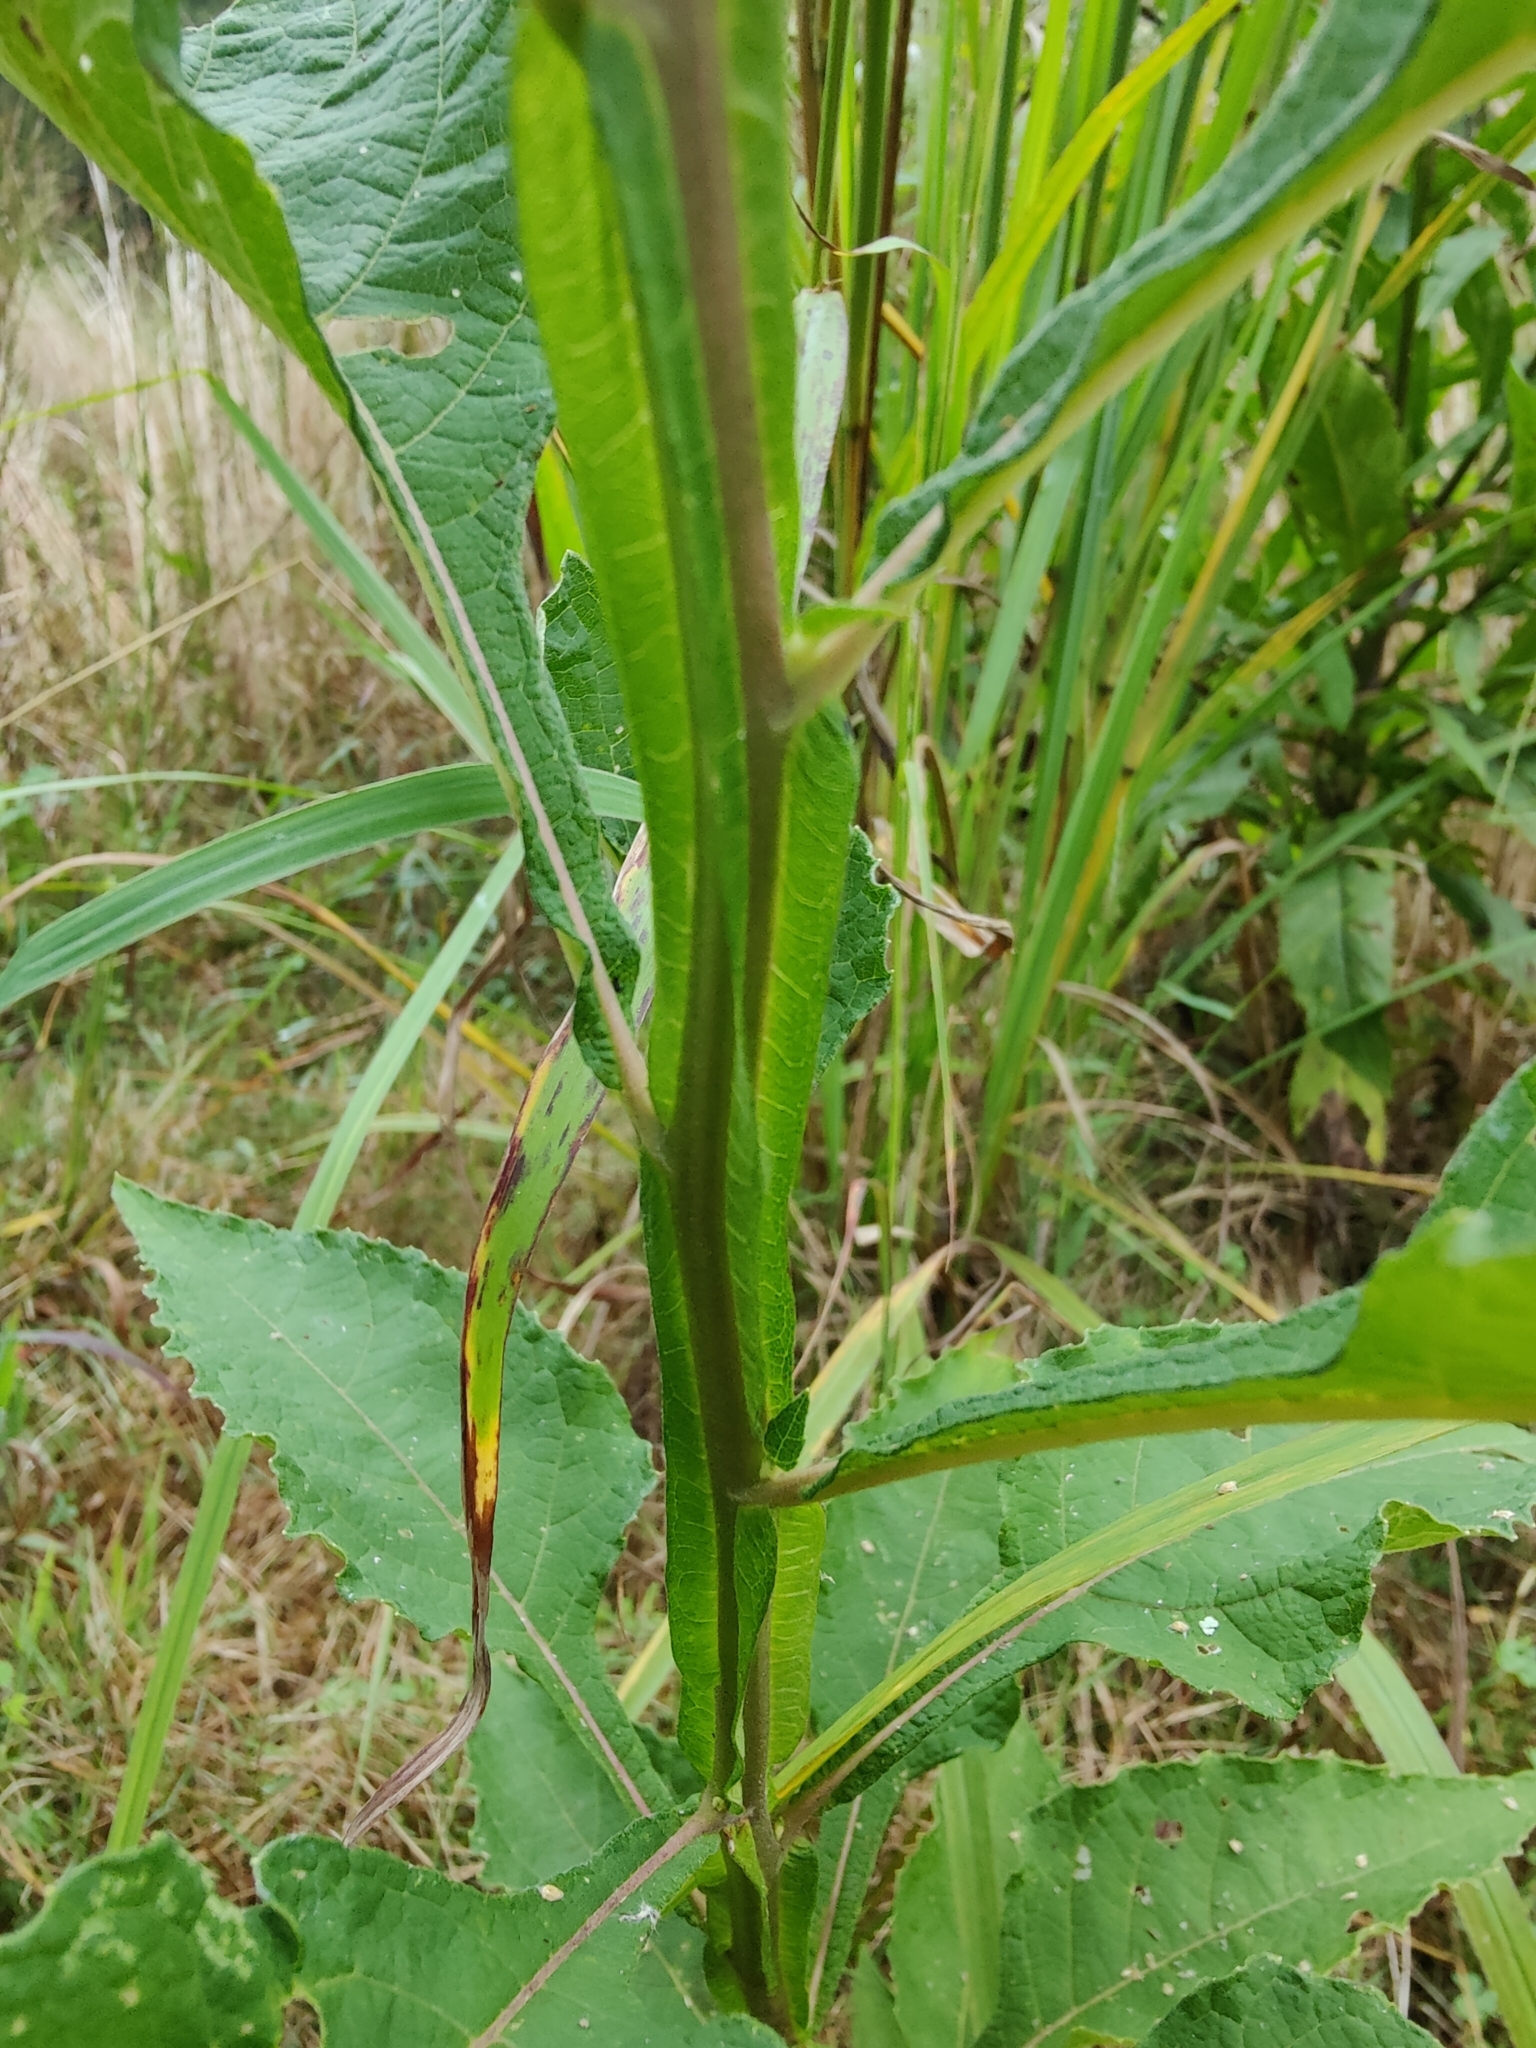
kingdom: Plantae
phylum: Tracheophyta
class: Magnoliopsida
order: Asterales
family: Asteraceae
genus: Verbesina
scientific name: Verbesina virginica
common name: Frostweed
